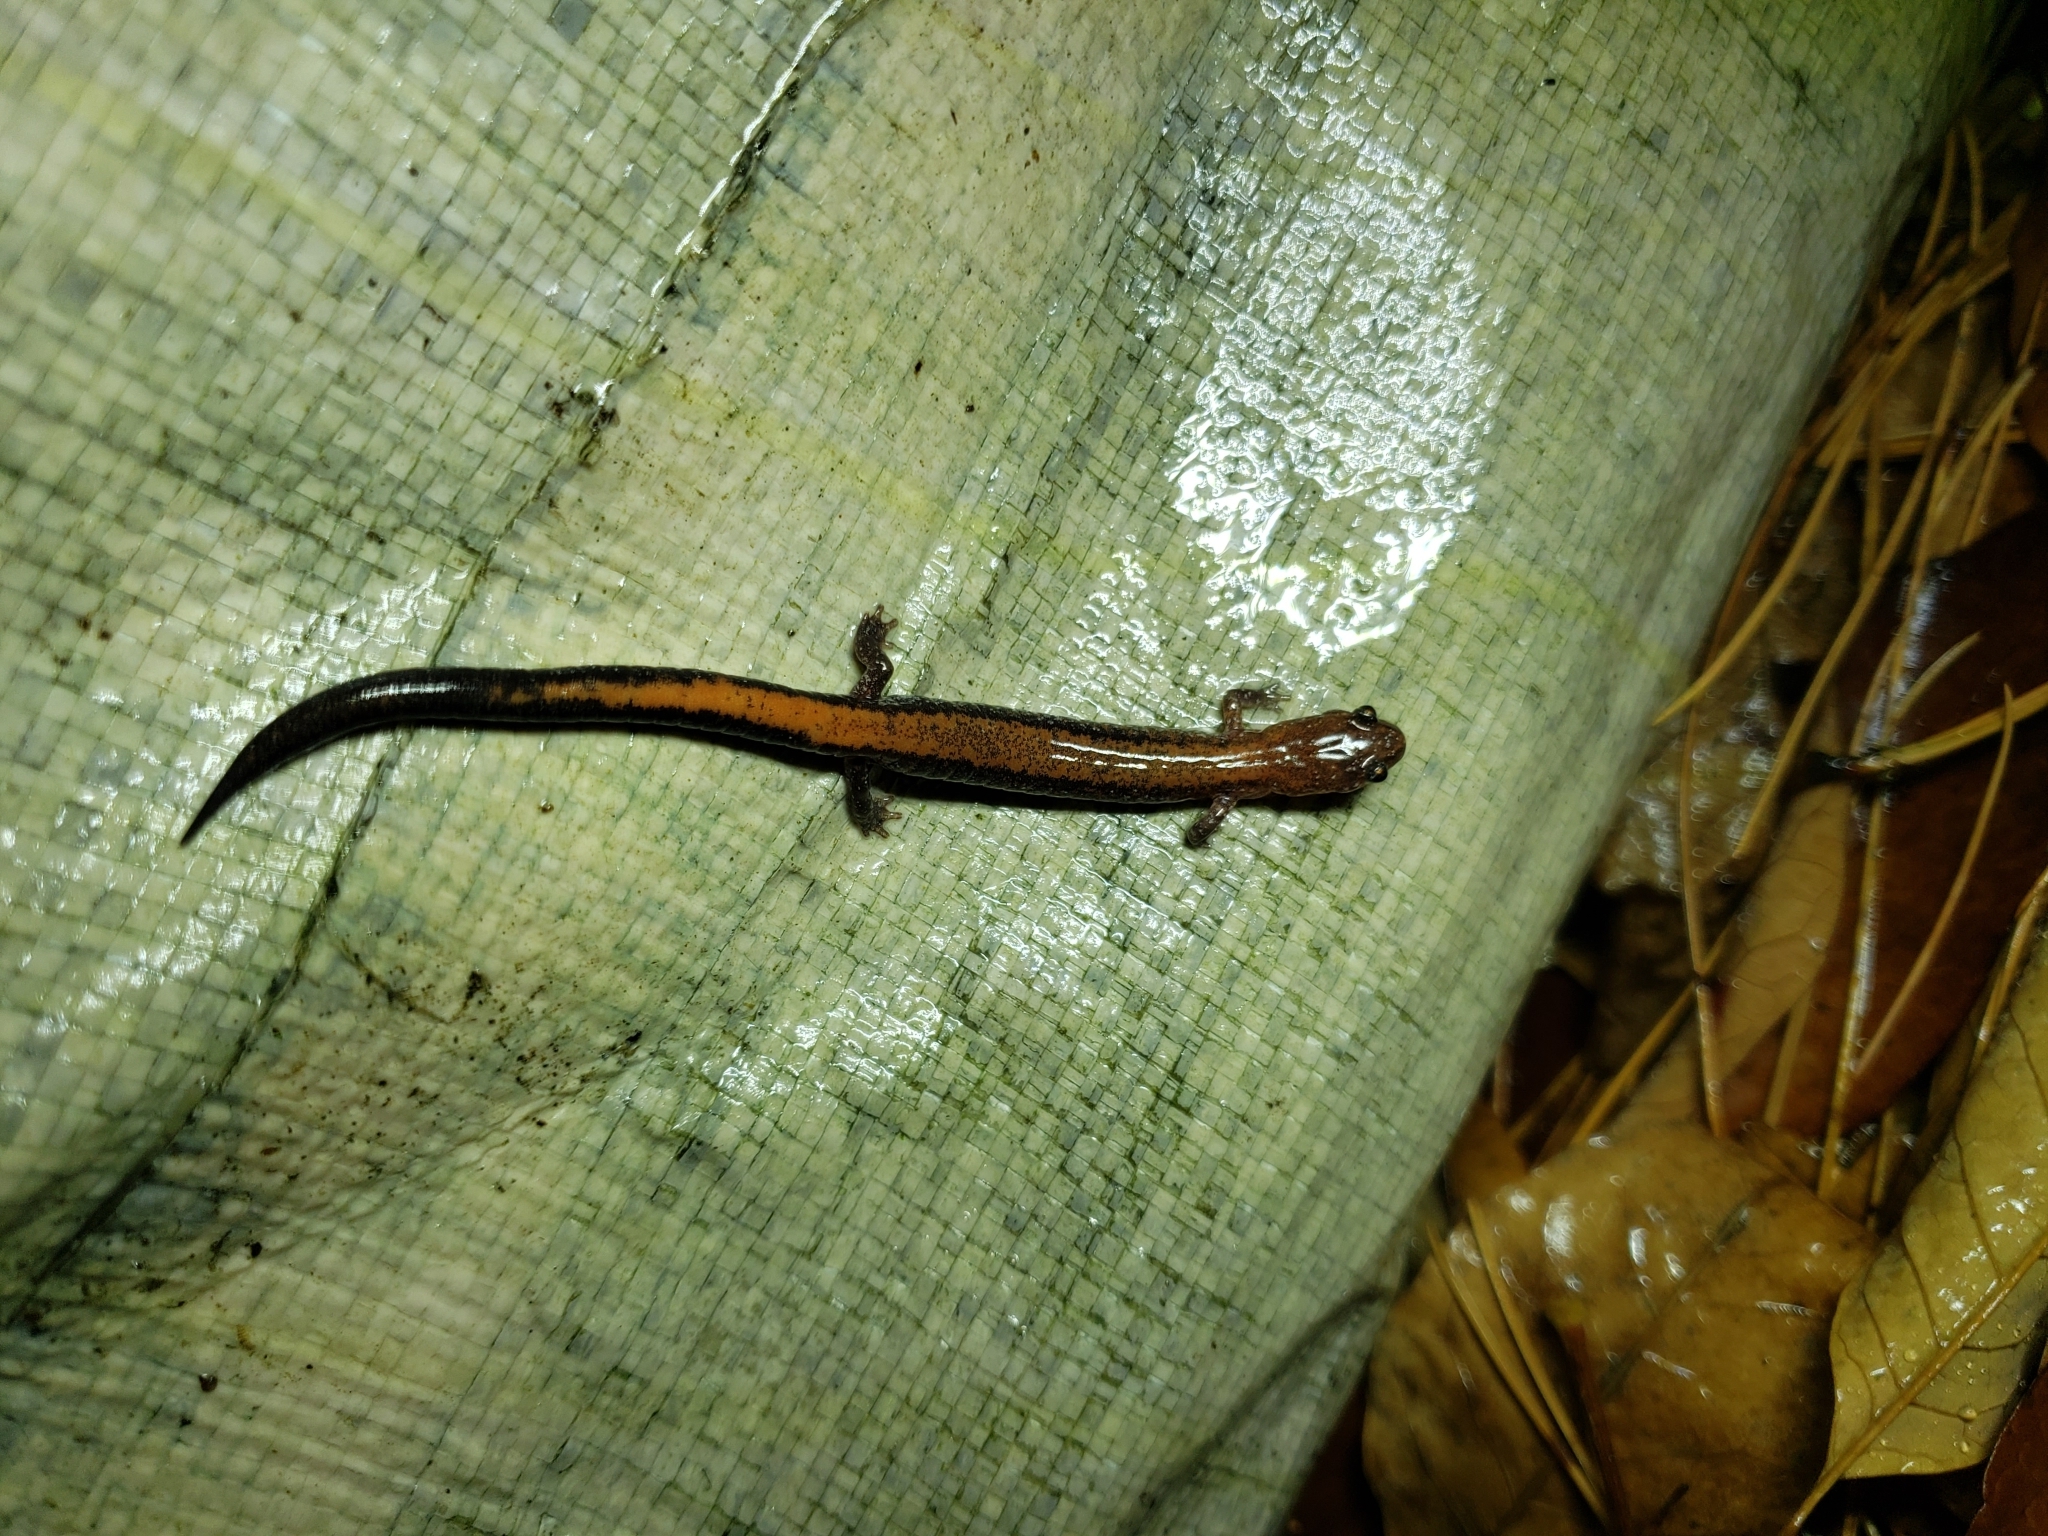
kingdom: Animalia
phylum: Chordata
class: Amphibia
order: Caudata
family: Plethodontidae
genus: Plethodon
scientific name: Plethodon cinereus
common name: Redback salamander
